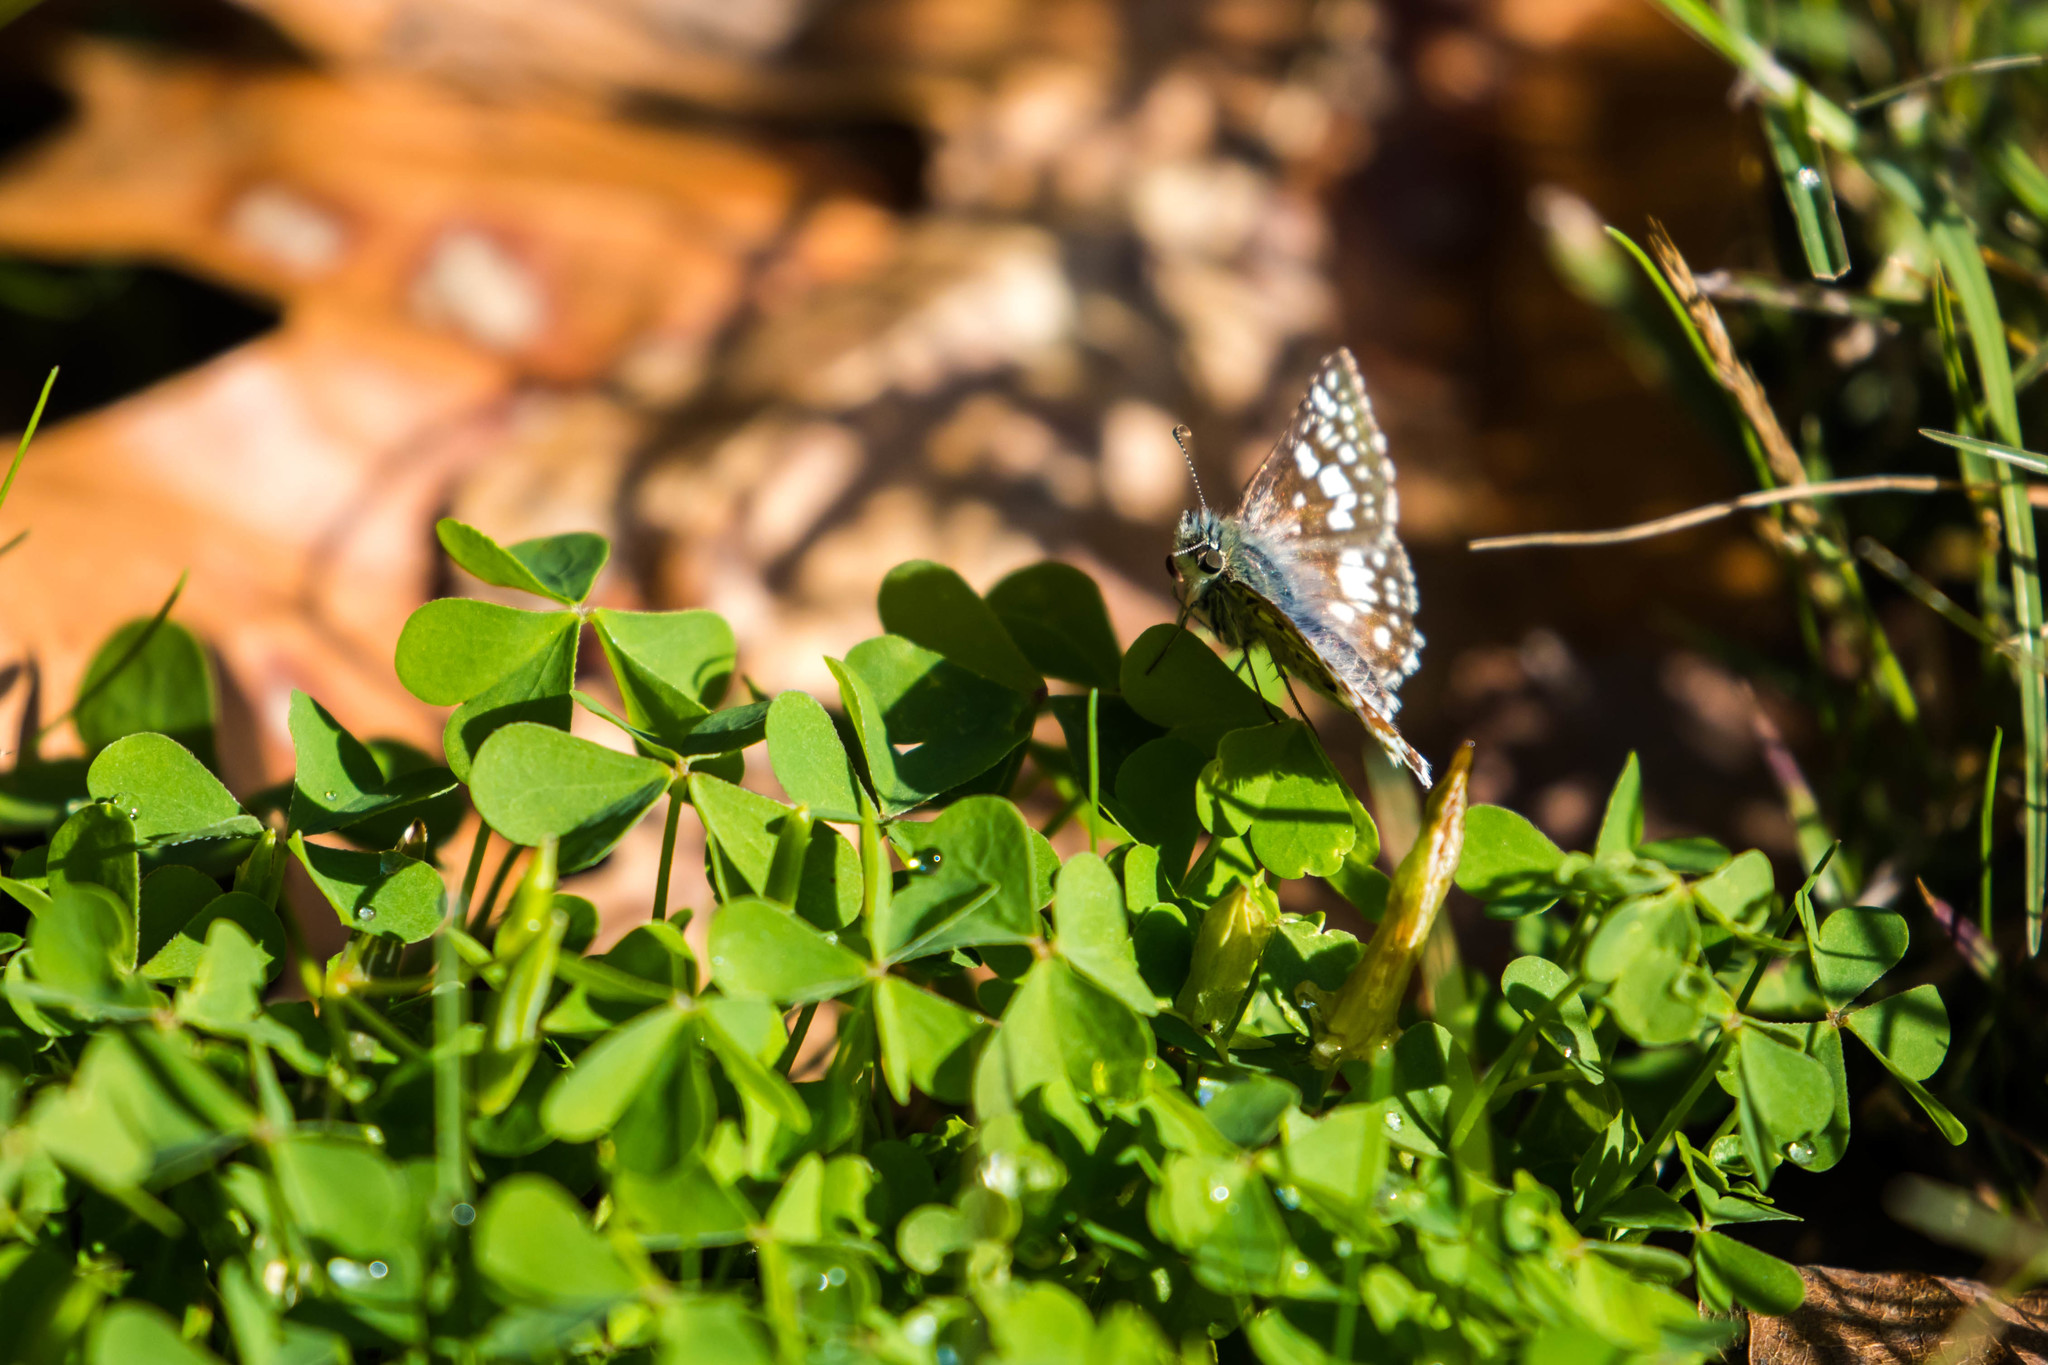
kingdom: Animalia
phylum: Arthropoda
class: Insecta
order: Lepidoptera
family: Hesperiidae
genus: Burnsius
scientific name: Burnsius communis
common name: Common checkered-skipper
